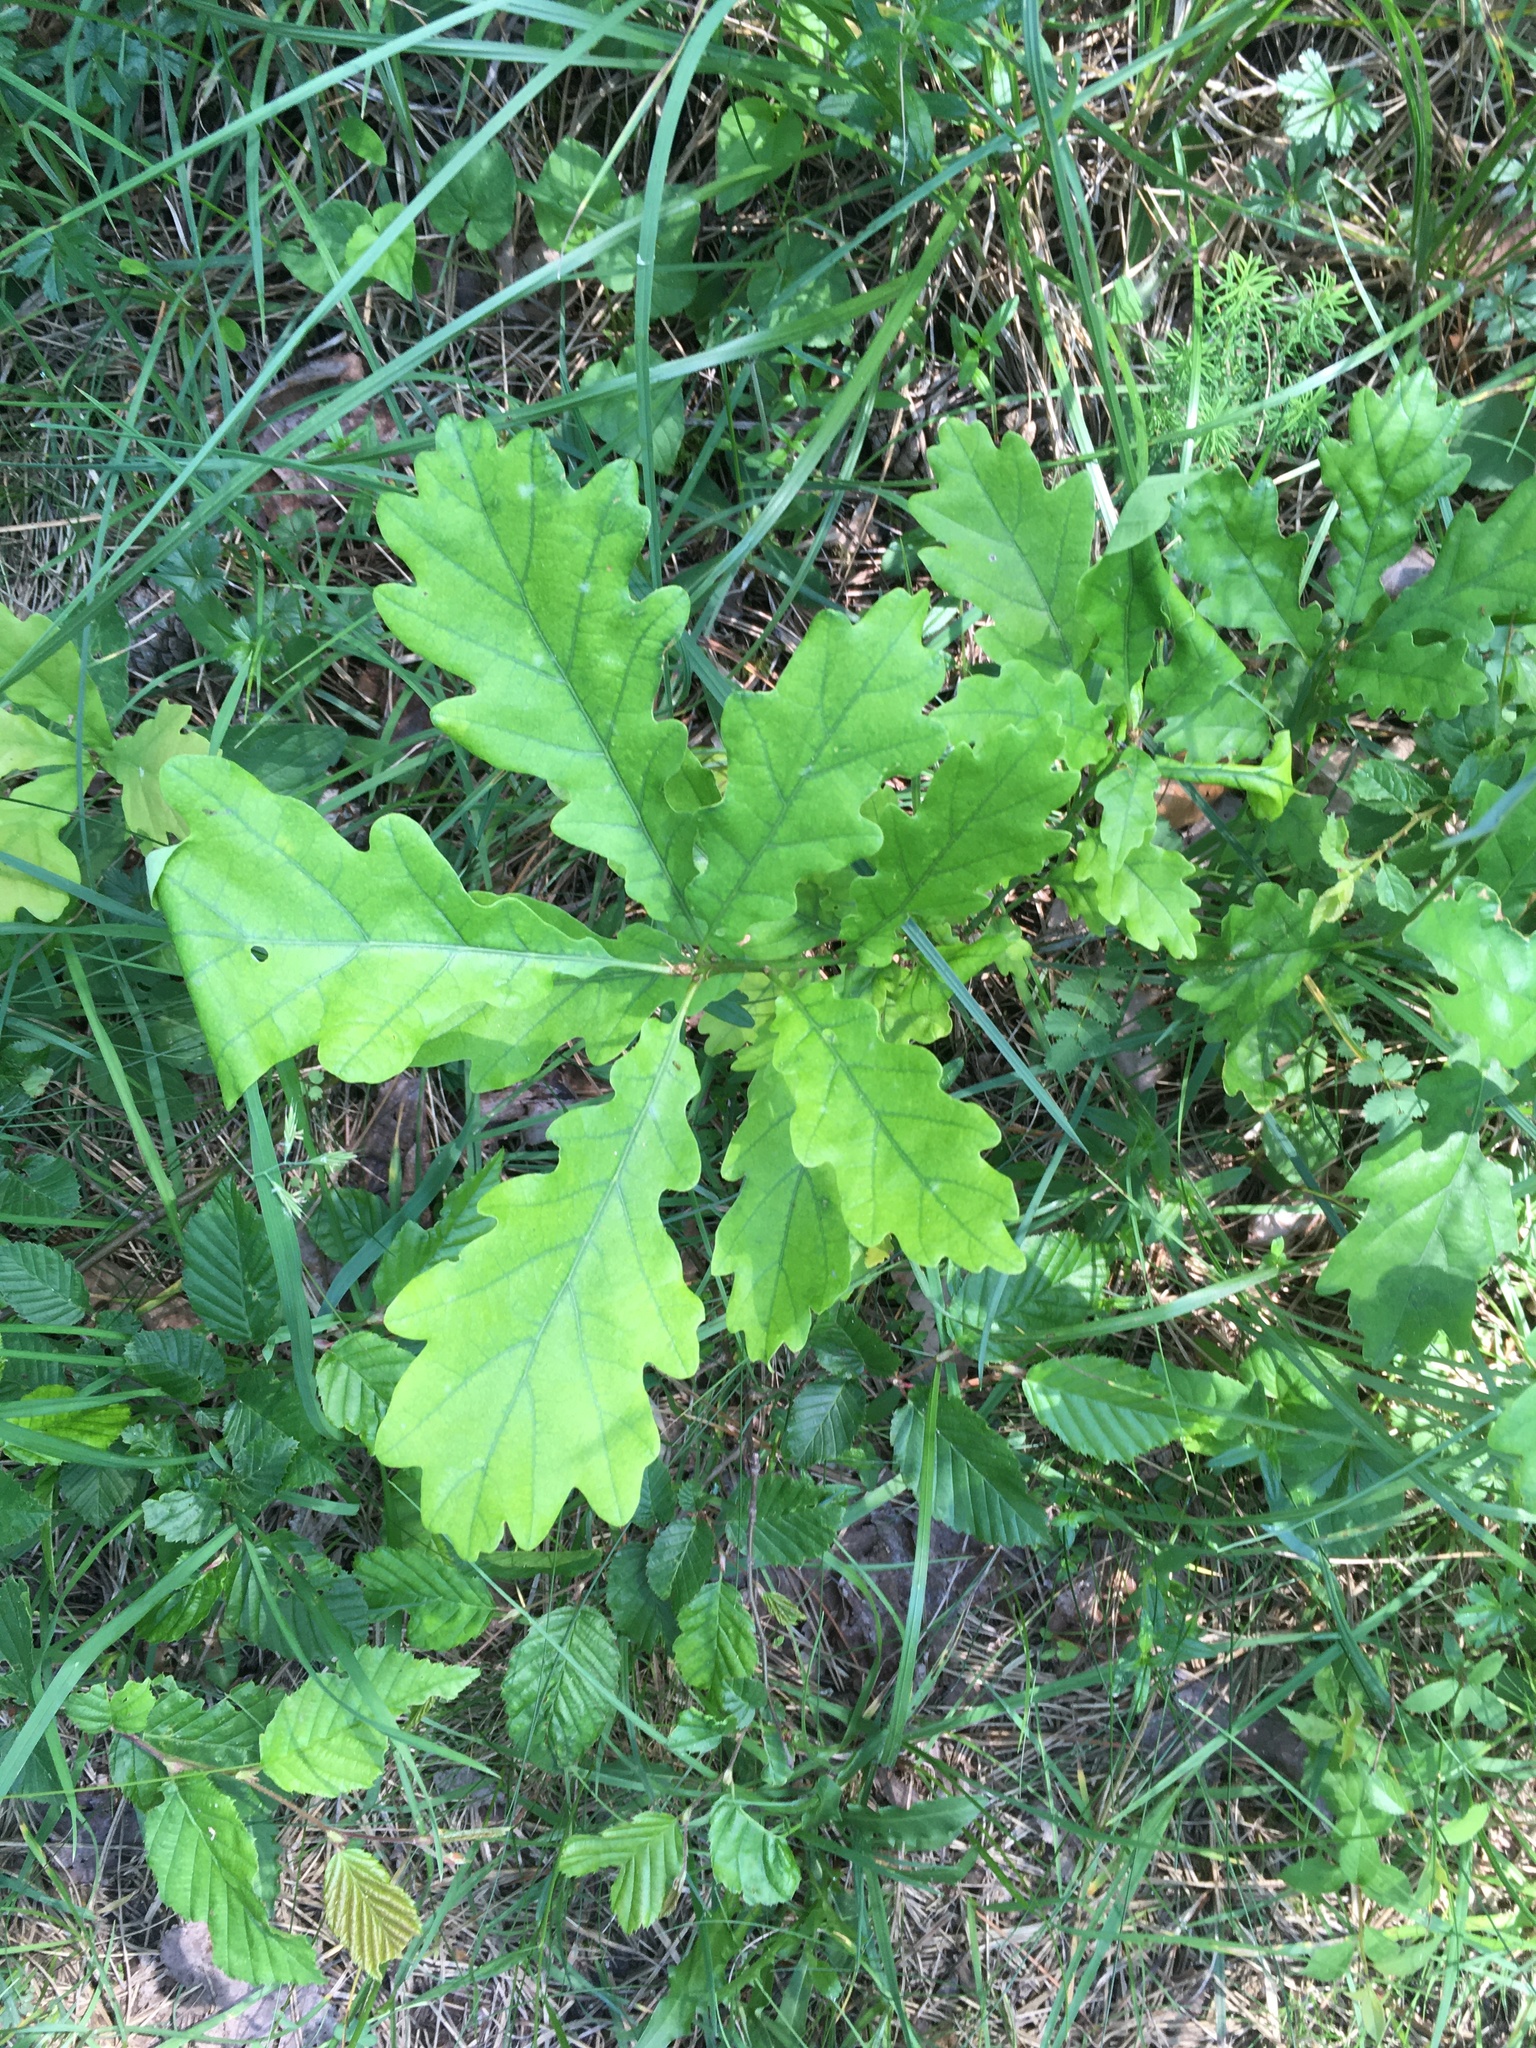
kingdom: Plantae
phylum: Tracheophyta
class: Magnoliopsida
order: Fagales
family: Fagaceae
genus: Quercus
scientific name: Quercus petraea
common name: Sessile oak
